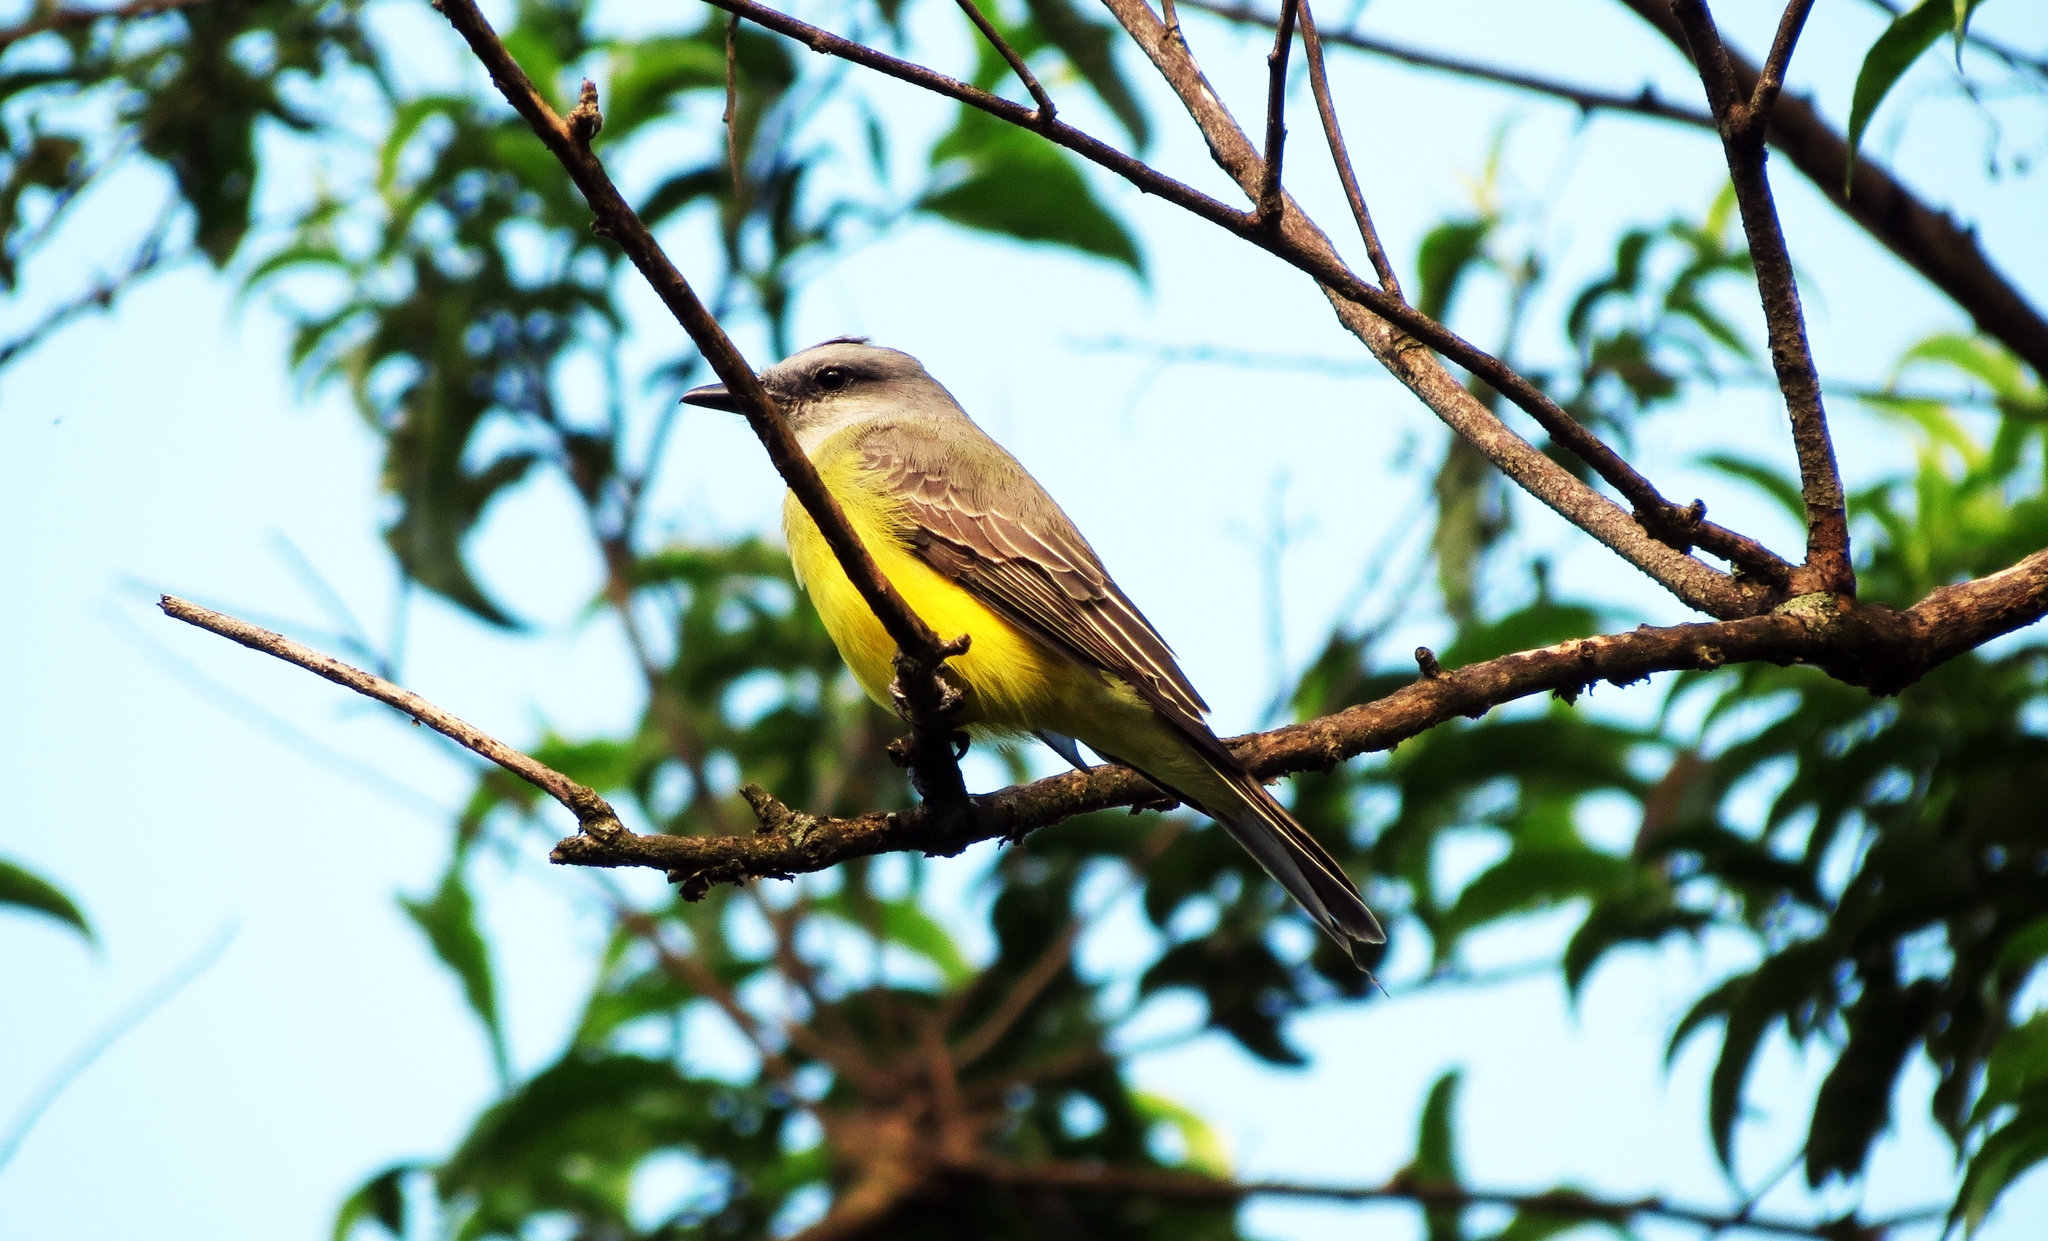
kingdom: Animalia
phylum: Chordata
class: Aves
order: Passeriformes
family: Tyrannidae
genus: Tyrannus
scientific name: Tyrannus melancholicus
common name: Tropical kingbird
